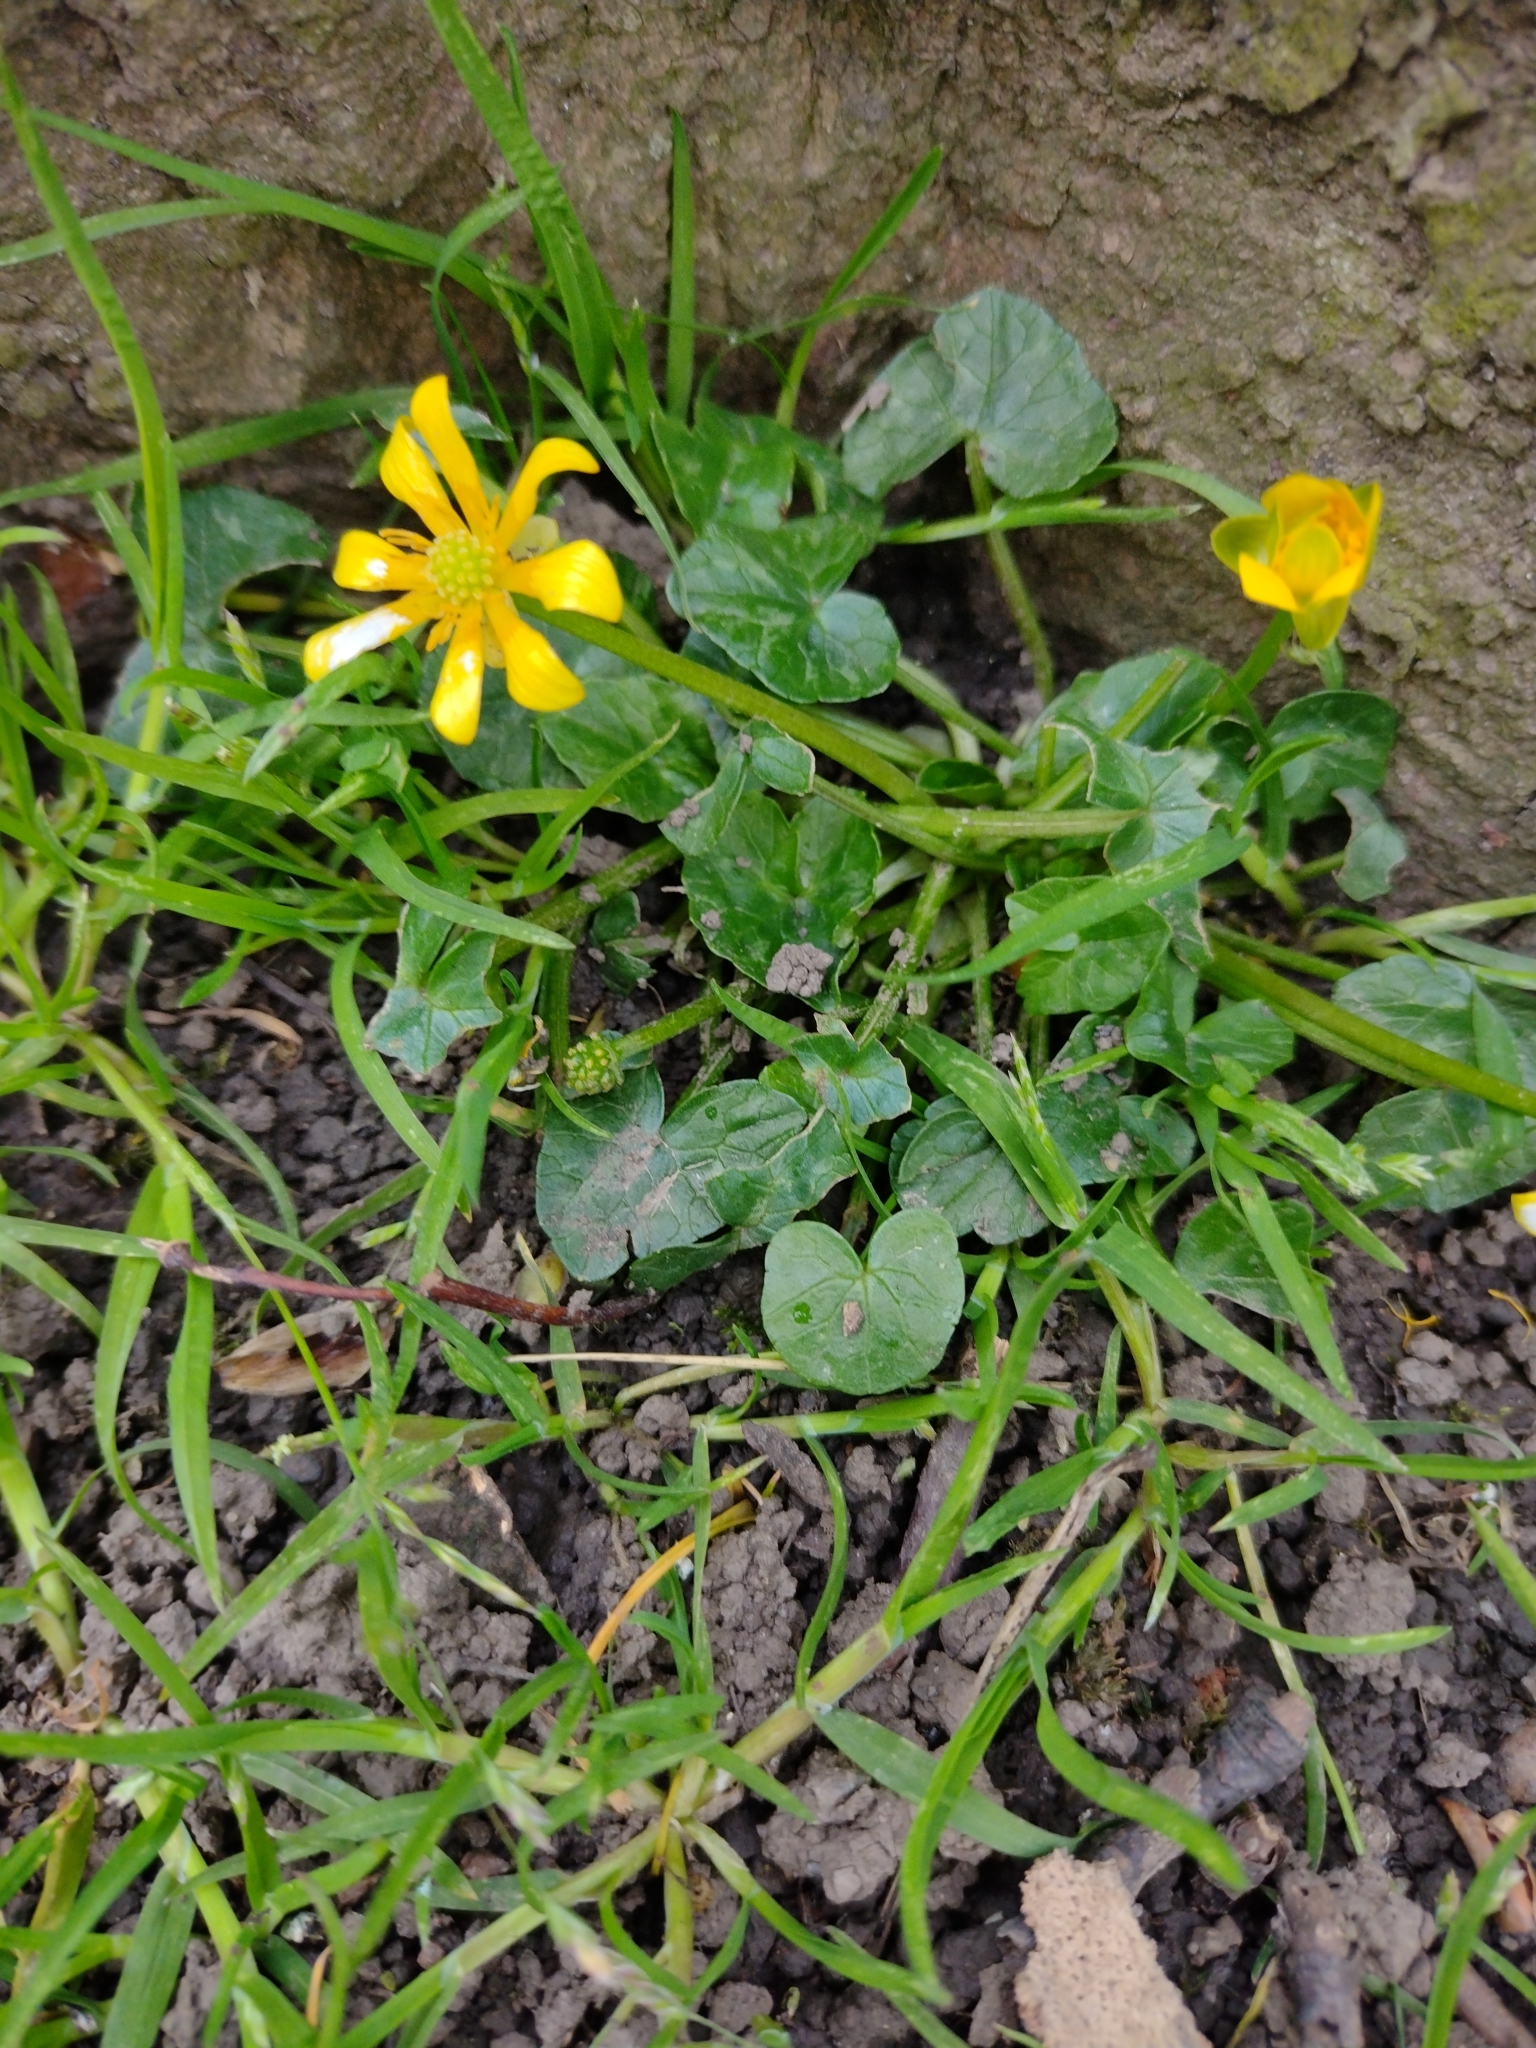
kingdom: Plantae
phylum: Tracheophyta
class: Magnoliopsida
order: Ranunculales
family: Ranunculaceae
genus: Ficaria
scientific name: Ficaria verna
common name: Lesser celandine
